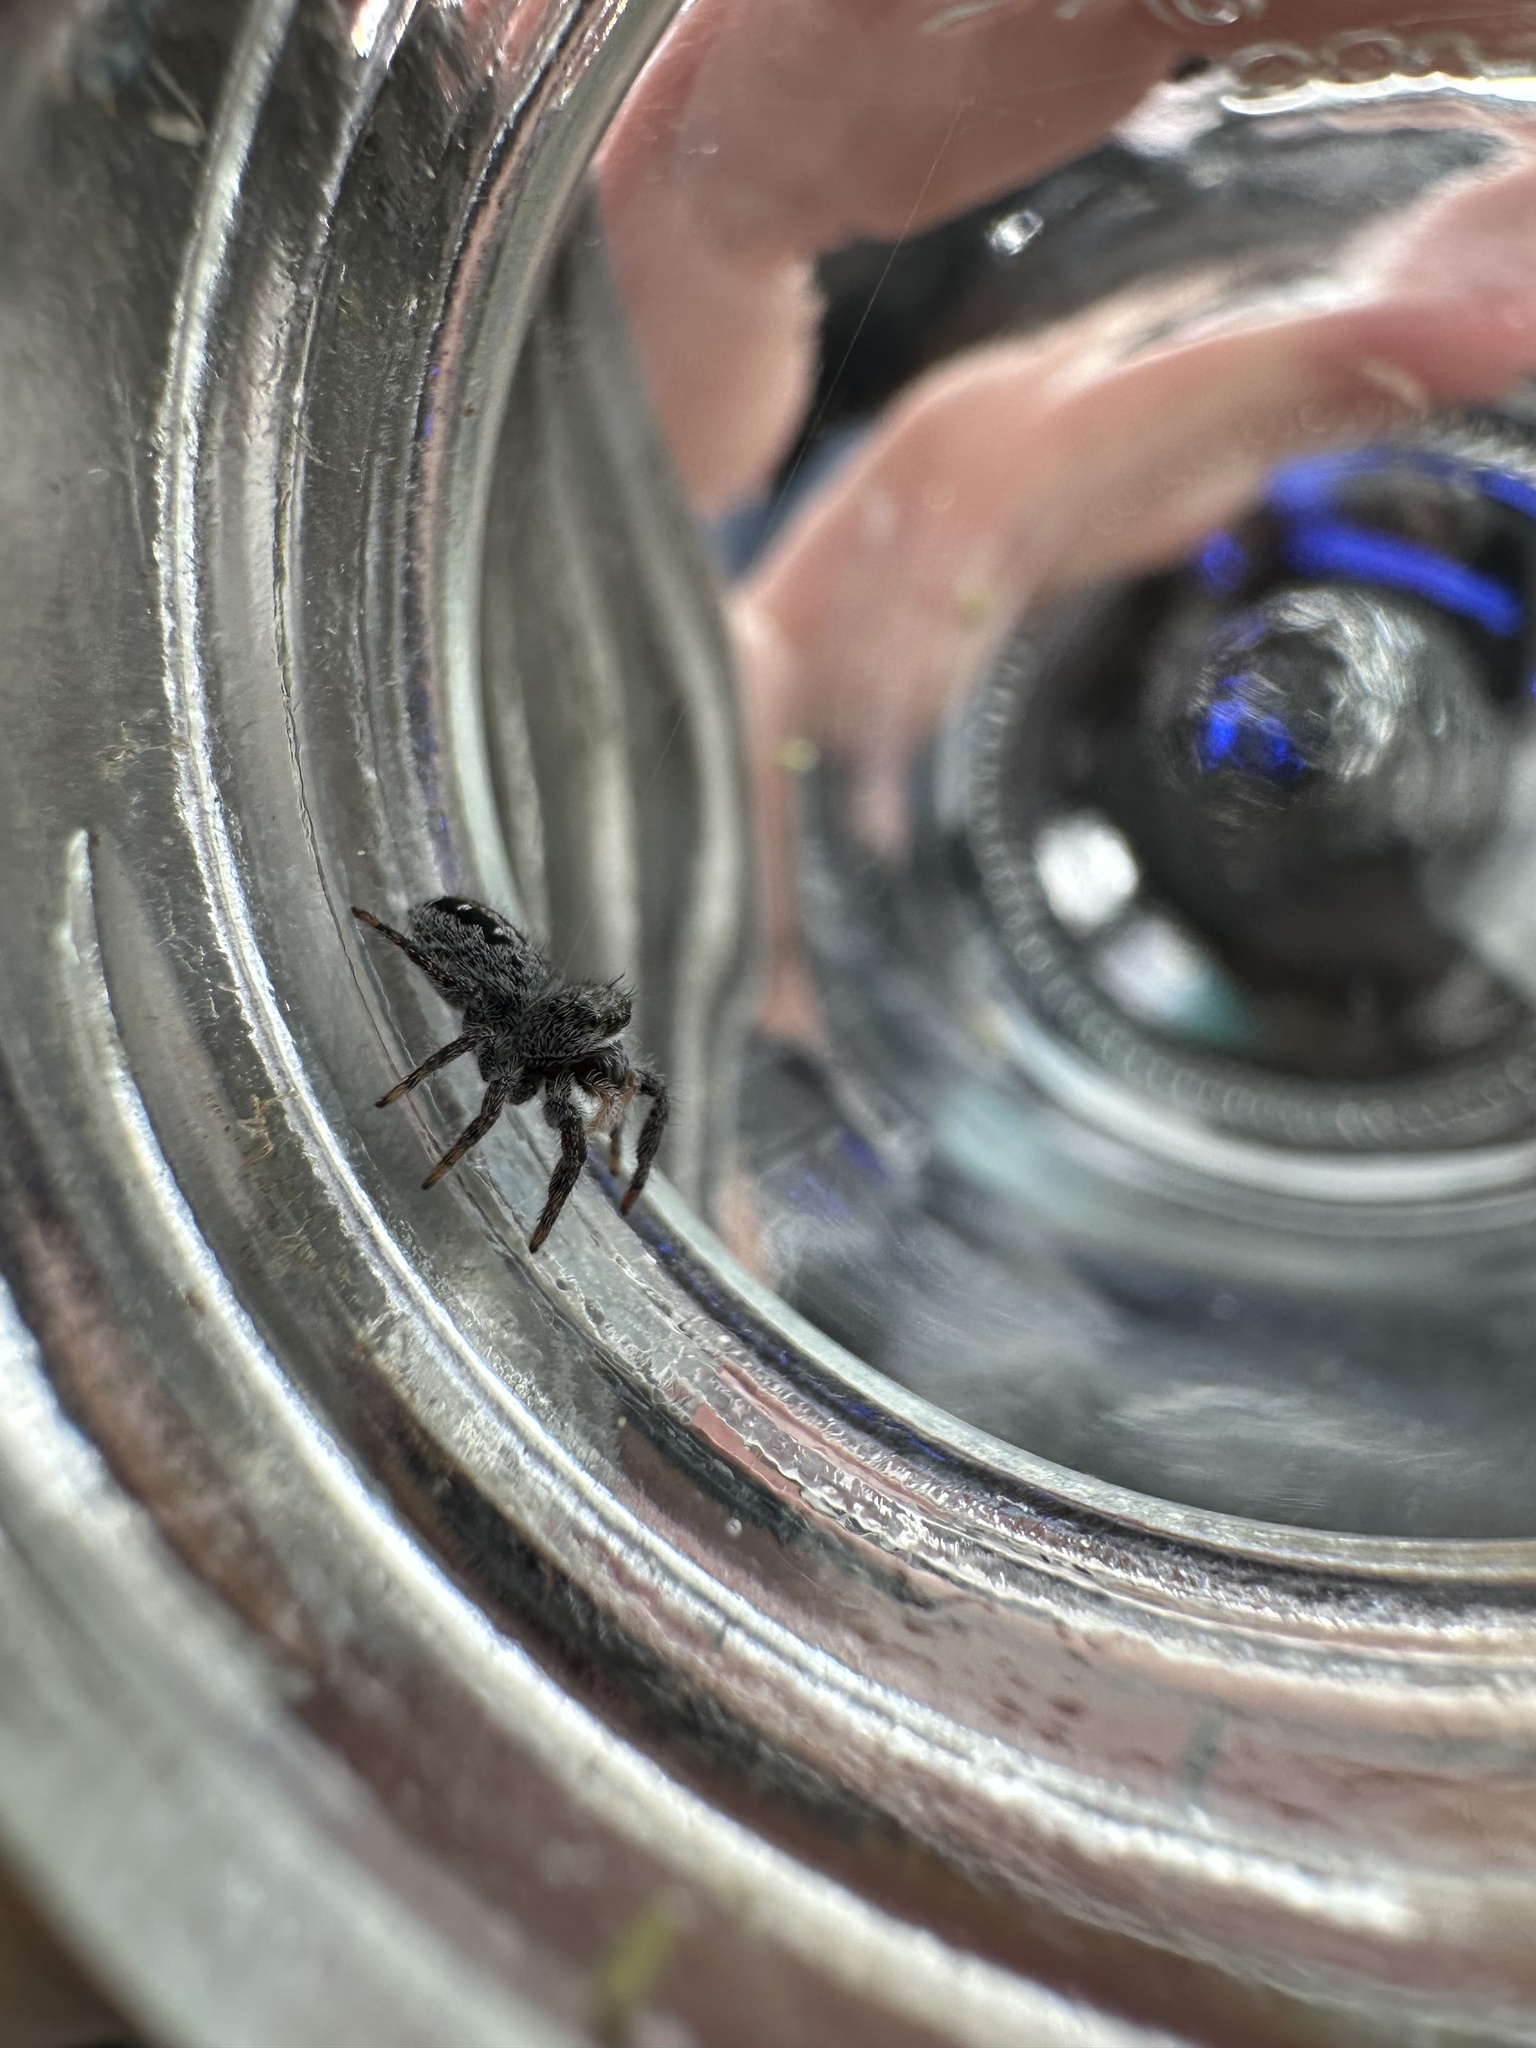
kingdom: Animalia
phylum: Arthropoda
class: Arachnida
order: Araneae
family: Salticidae
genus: Phidippus
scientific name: Phidippus purpuratus
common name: Marbled purple jumping spider
